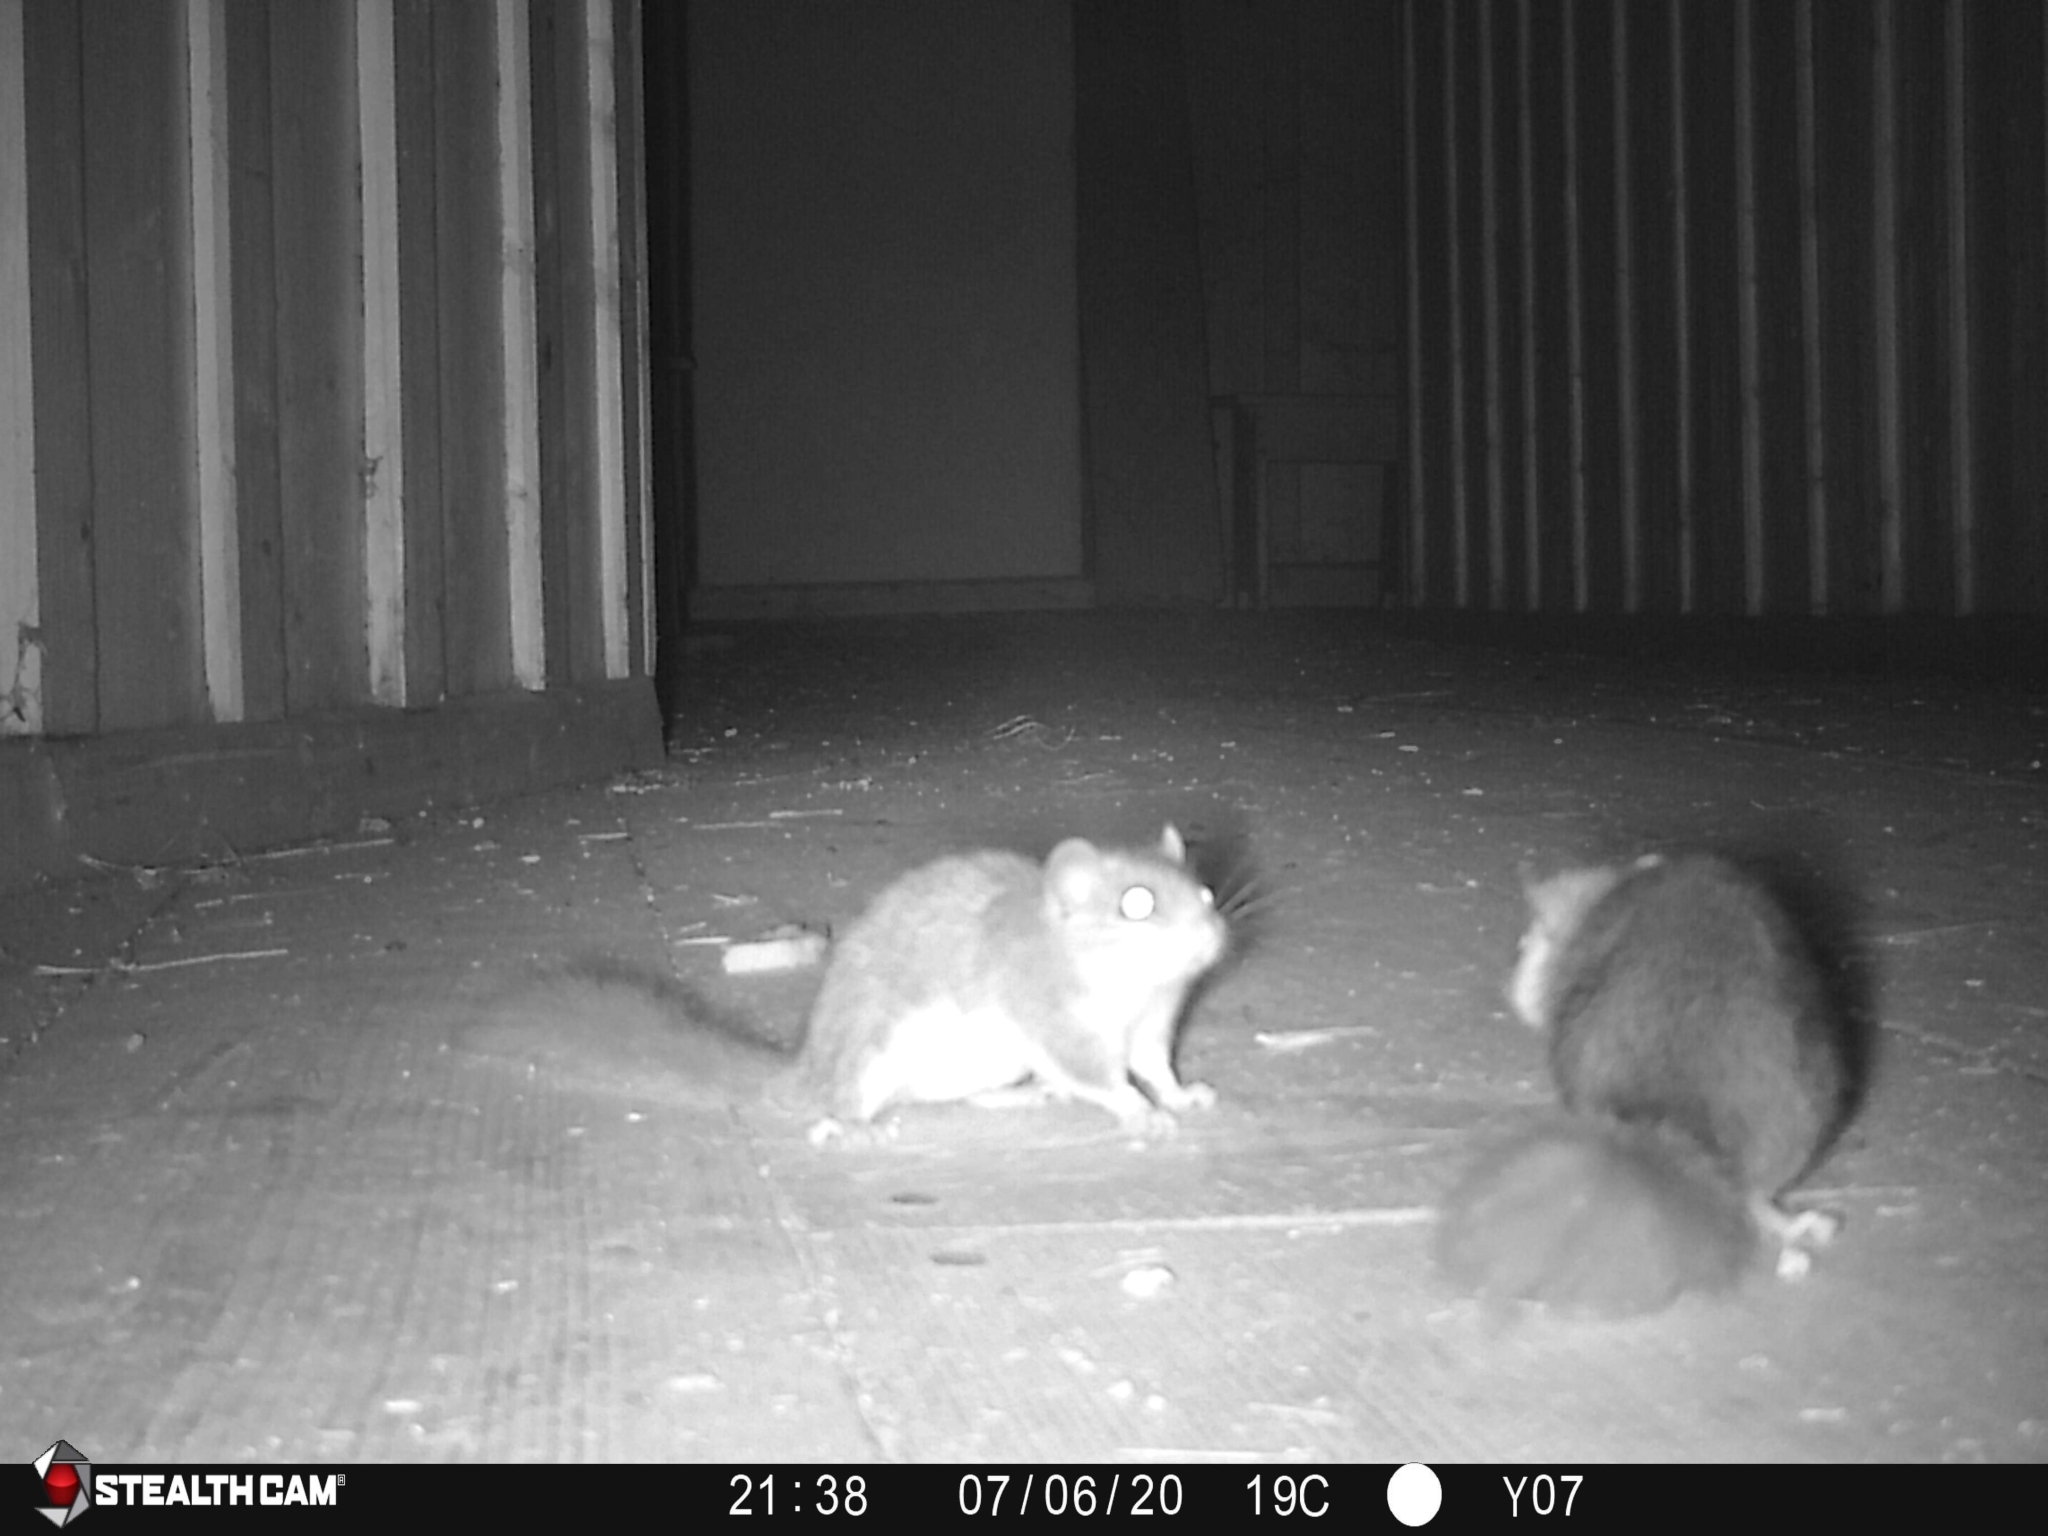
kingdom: Animalia
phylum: Chordata
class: Mammalia
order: Rodentia
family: Gliridae
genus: Glis
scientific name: Glis glis
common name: Fat dormouse
